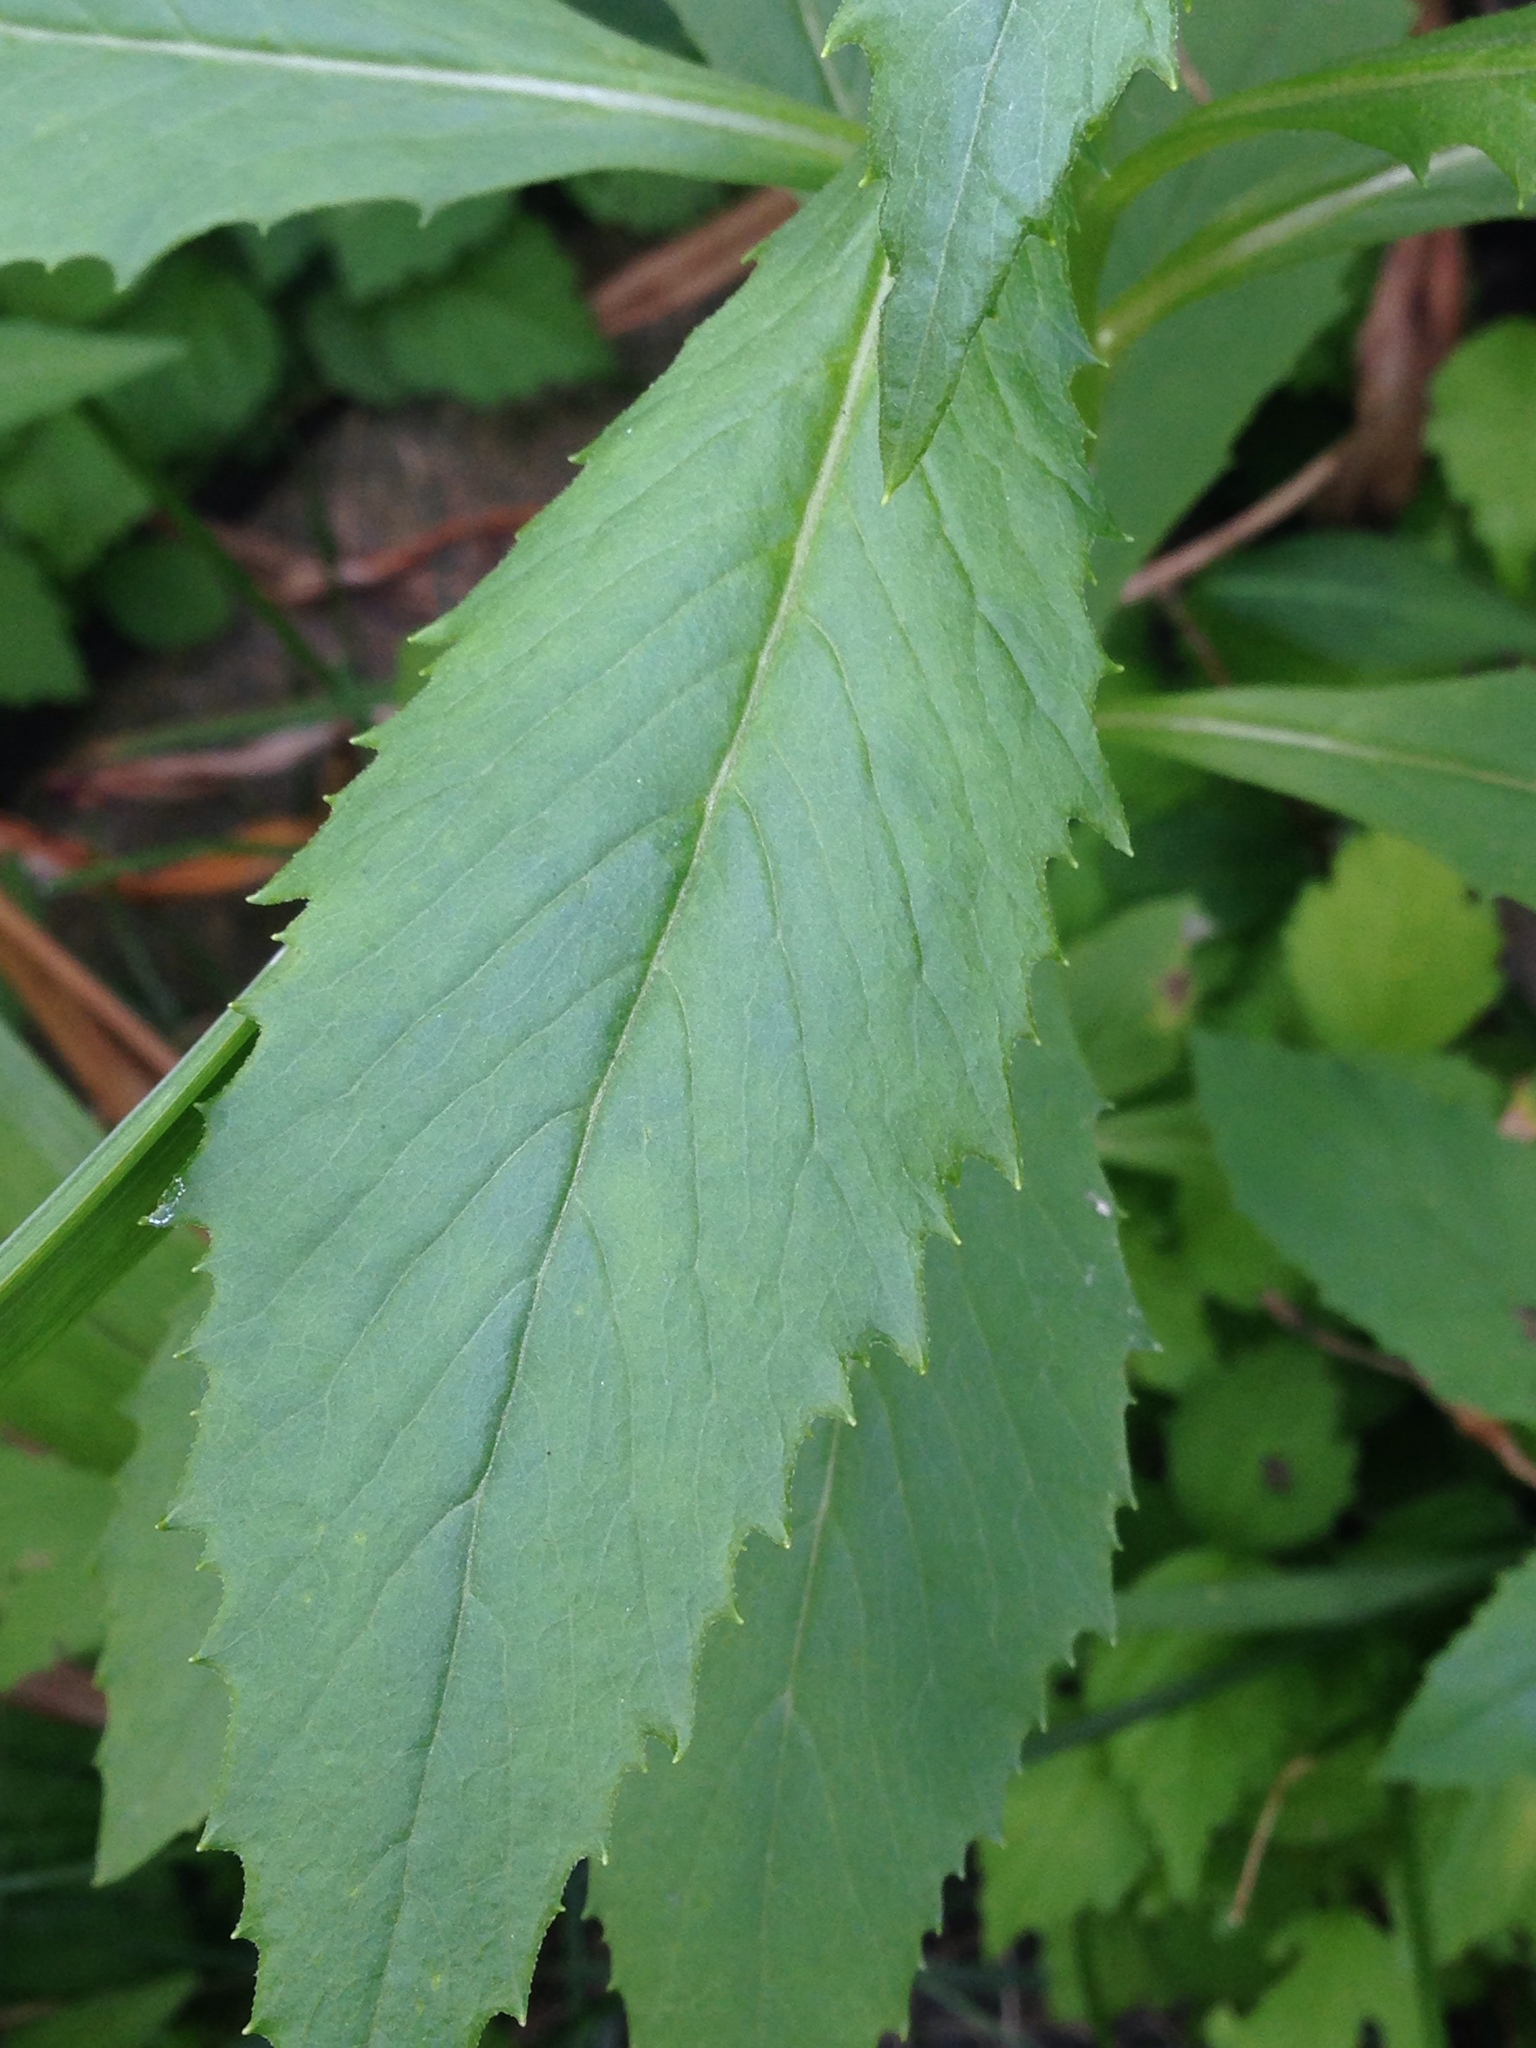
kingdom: Plantae
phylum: Tracheophyta
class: Magnoliopsida
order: Asterales
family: Asteraceae
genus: Erechtites
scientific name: Erechtites hieraciifolius
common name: American burnweed
